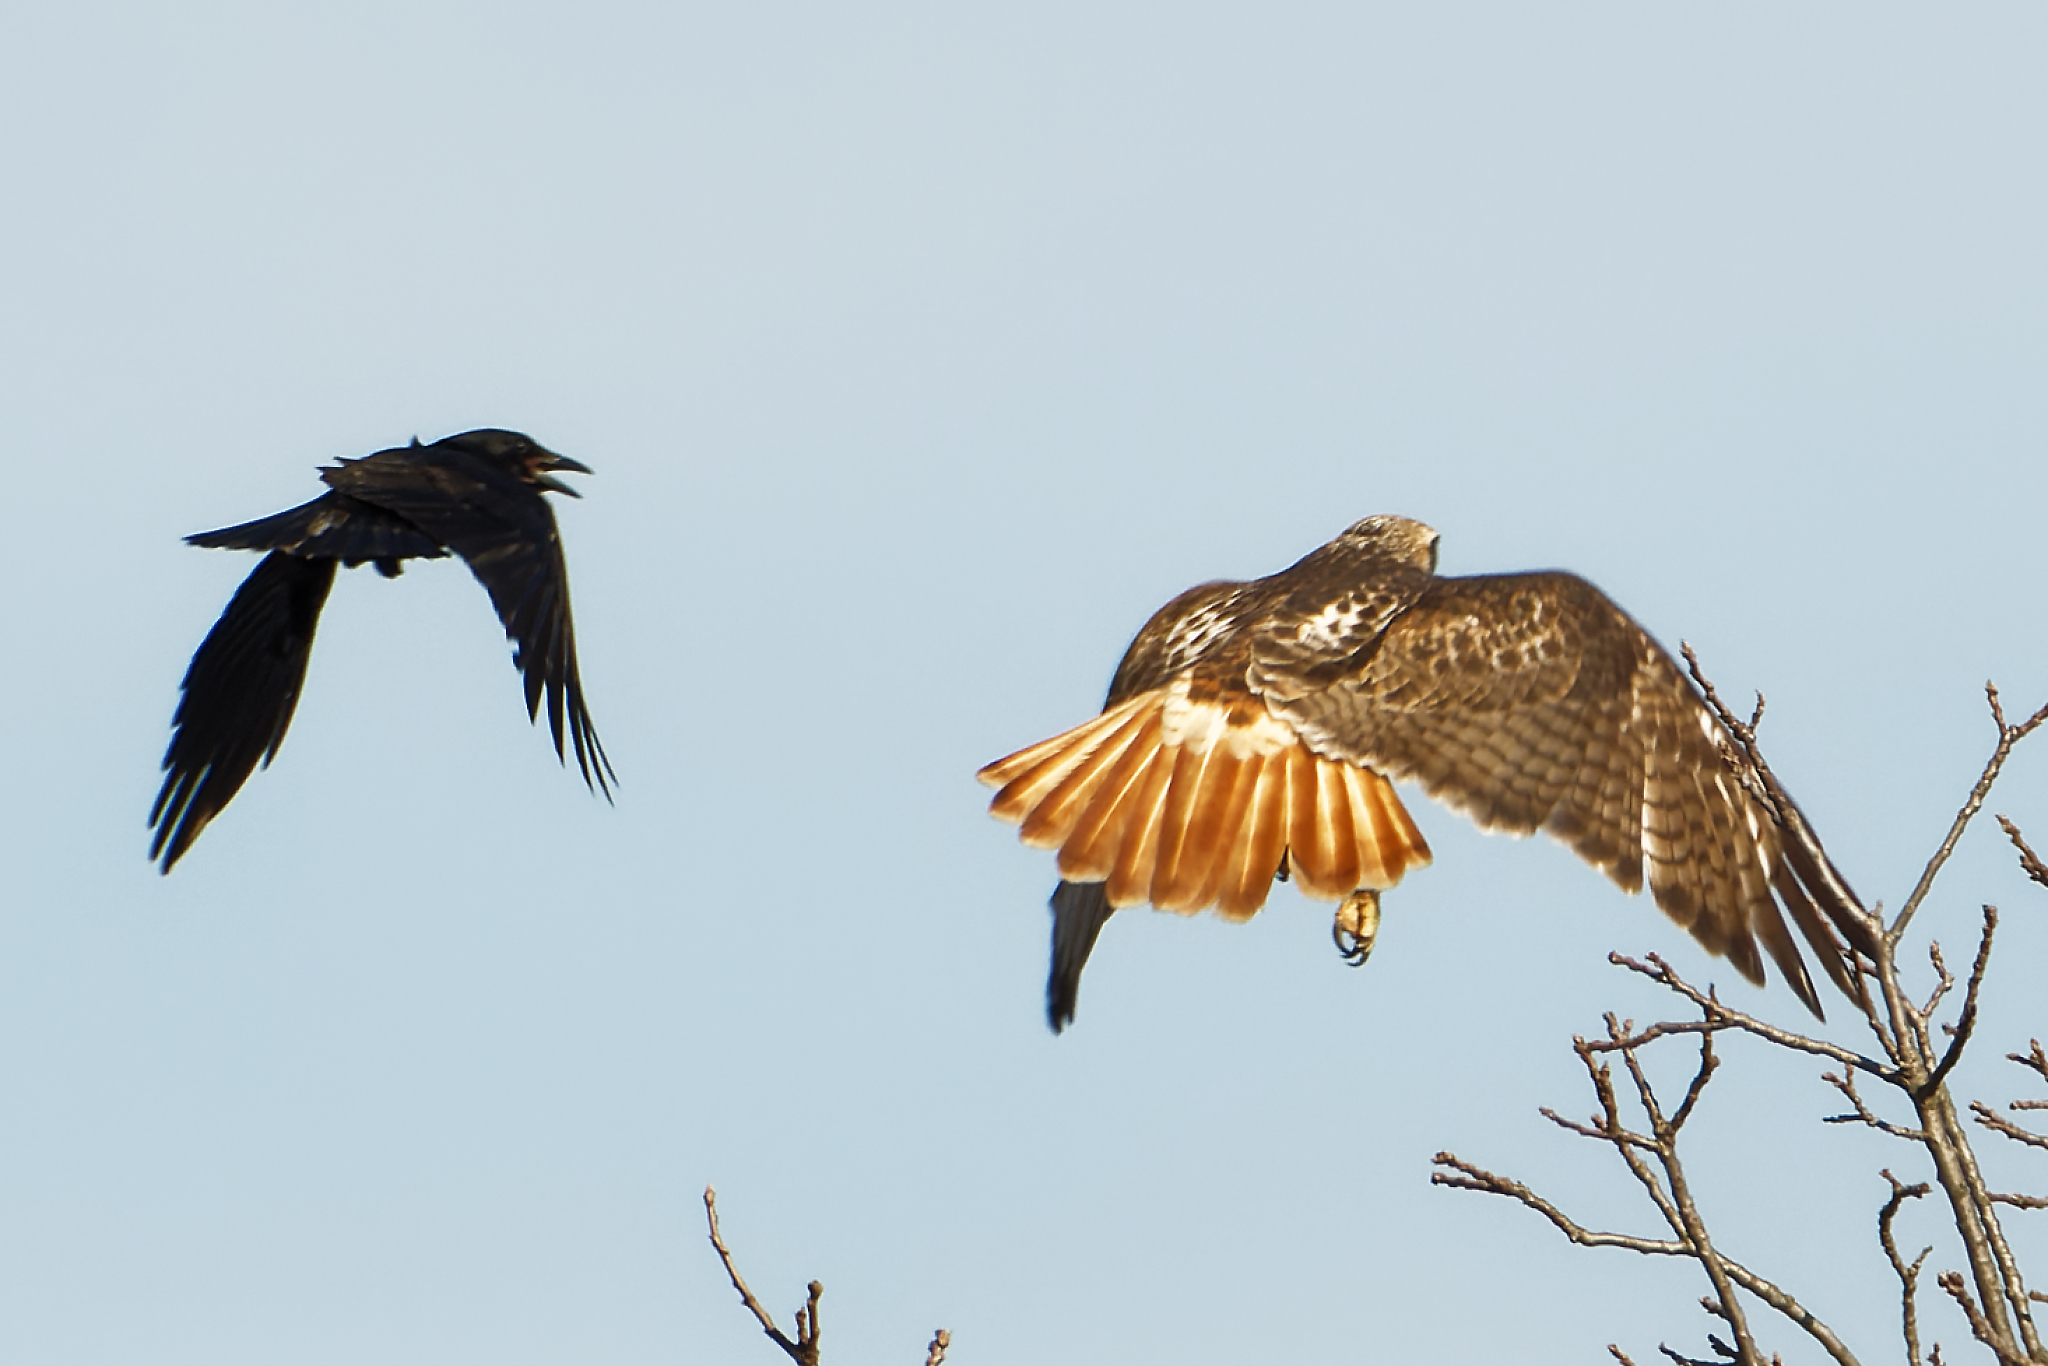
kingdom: Animalia
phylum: Chordata
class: Aves
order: Accipitriformes
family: Accipitridae
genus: Buteo
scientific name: Buteo jamaicensis
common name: Red-tailed hawk
